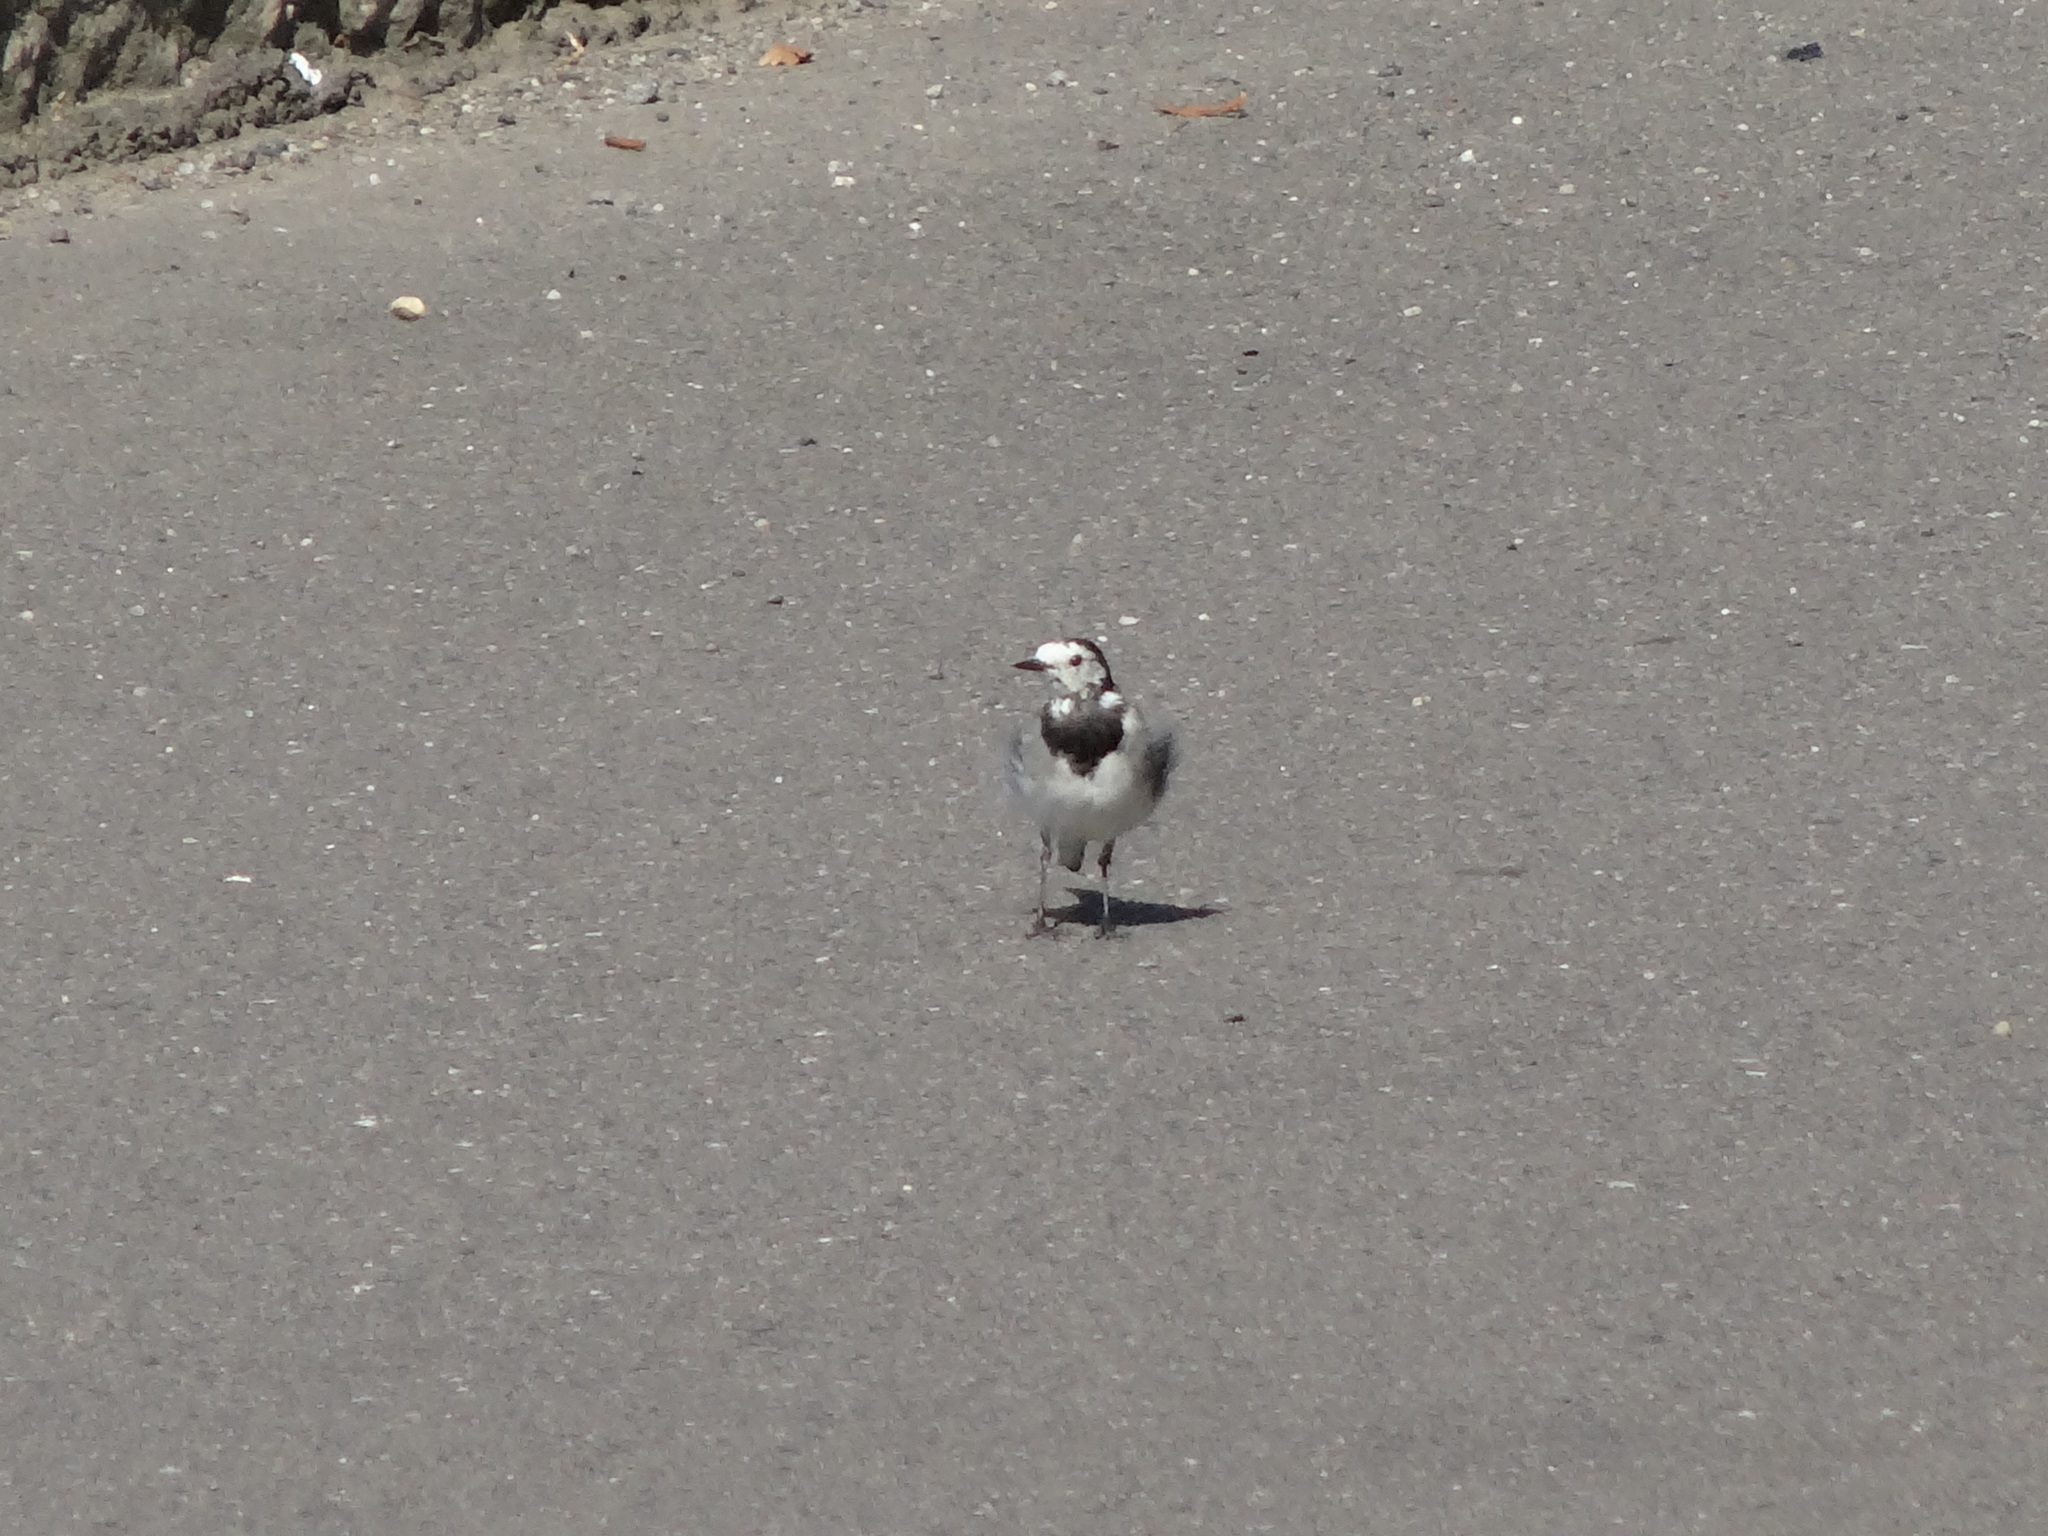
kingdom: Animalia
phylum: Chordata
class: Aves
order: Passeriformes
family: Motacillidae
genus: Motacilla
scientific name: Motacilla alba
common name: White wagtail
